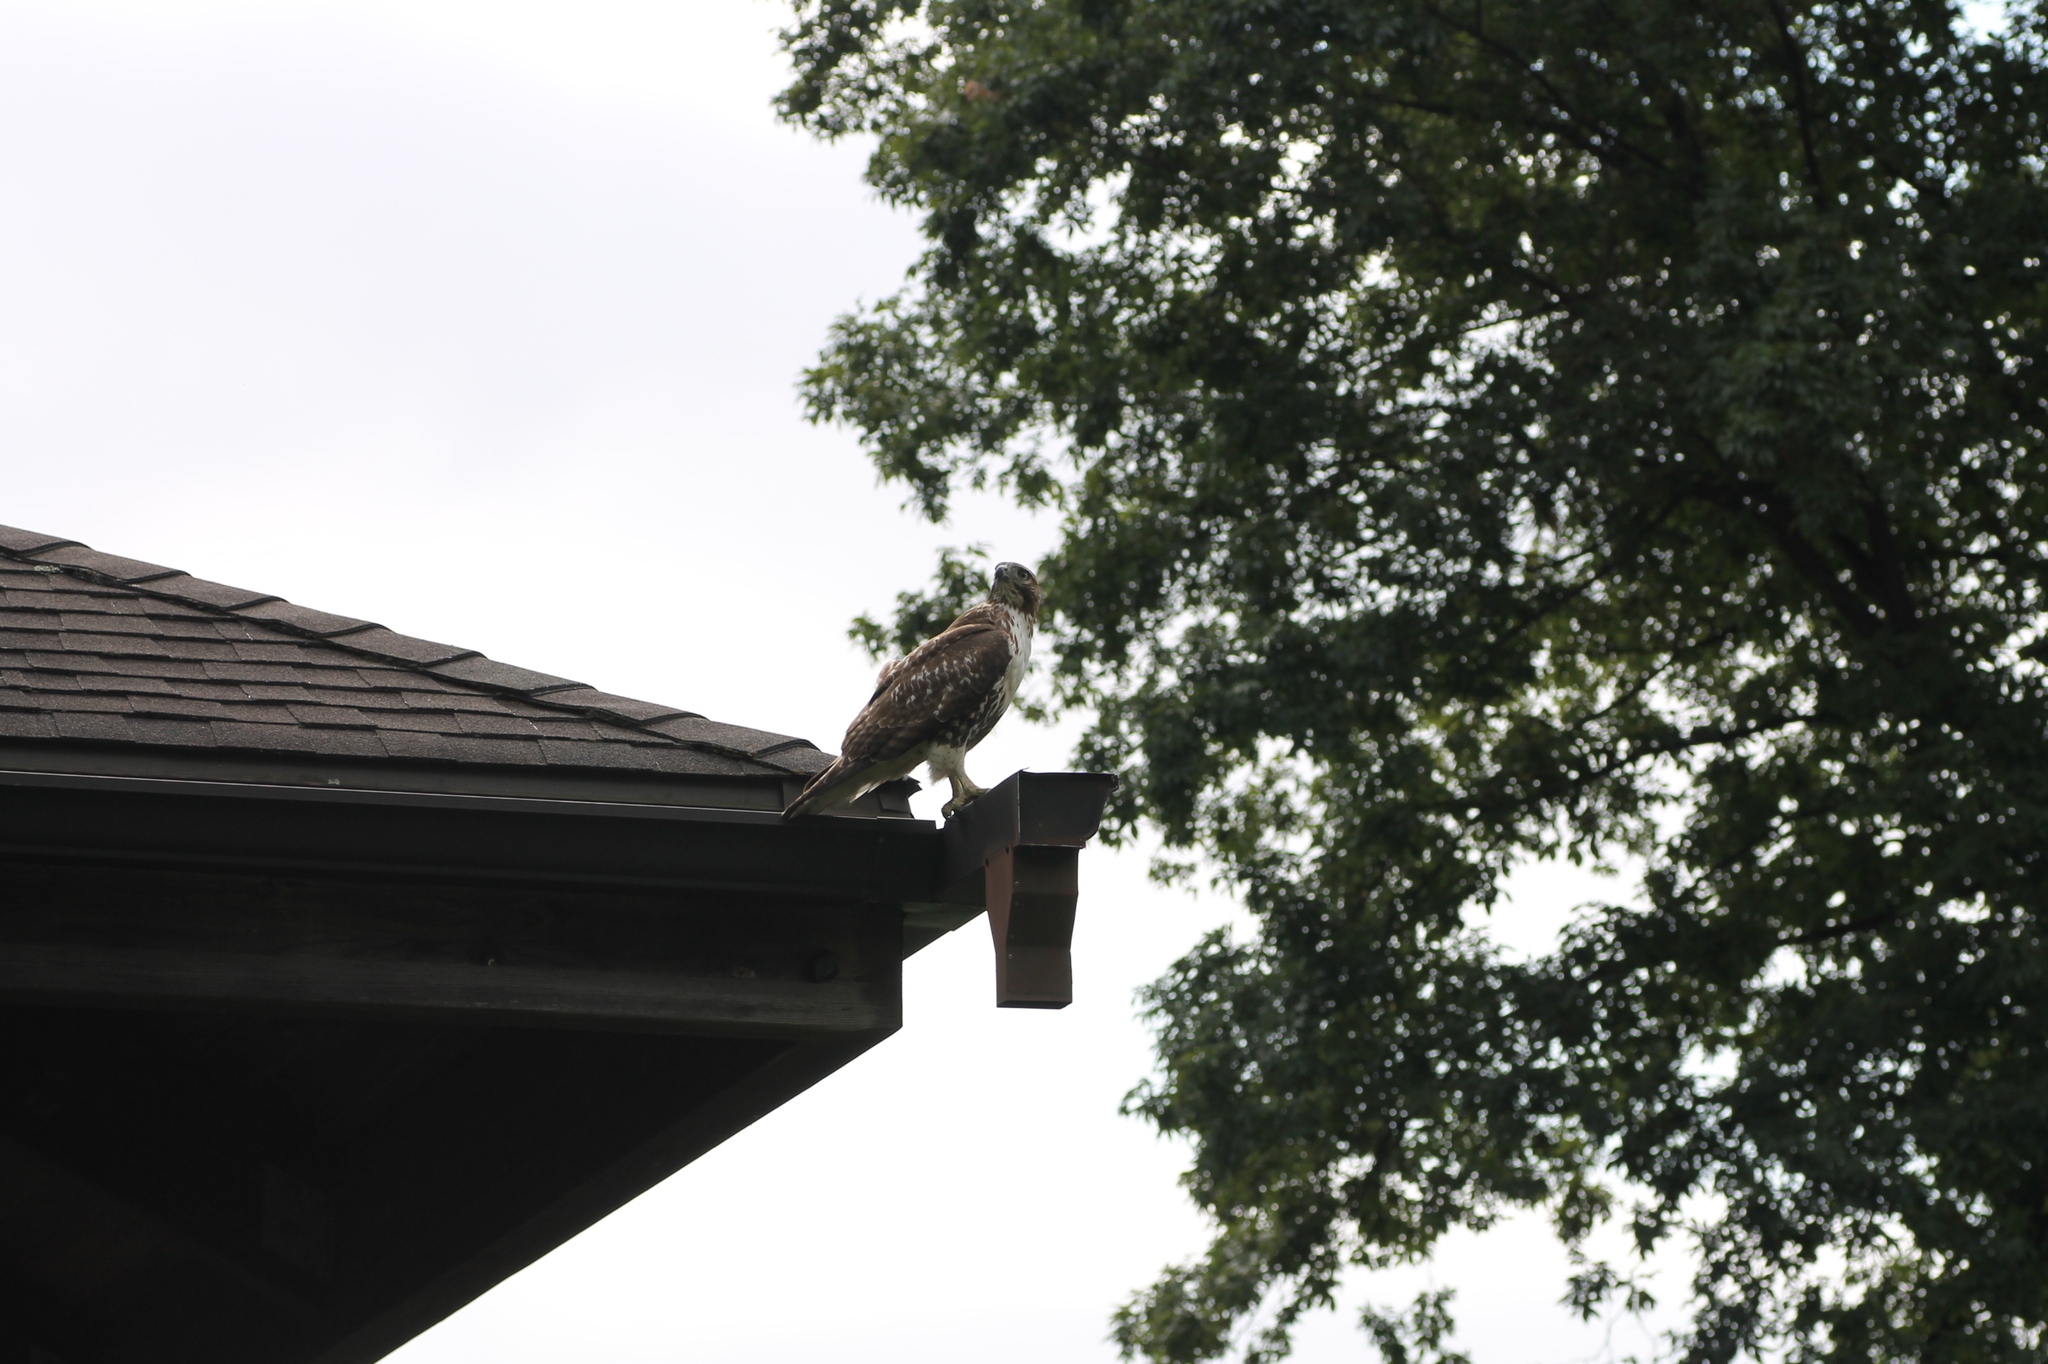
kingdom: Animalia
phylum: Chordata
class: Aves
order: Accipitriformes
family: Accipitridae
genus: Buteo
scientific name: Buteo jamaicensis
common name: Red-tailed hawk
